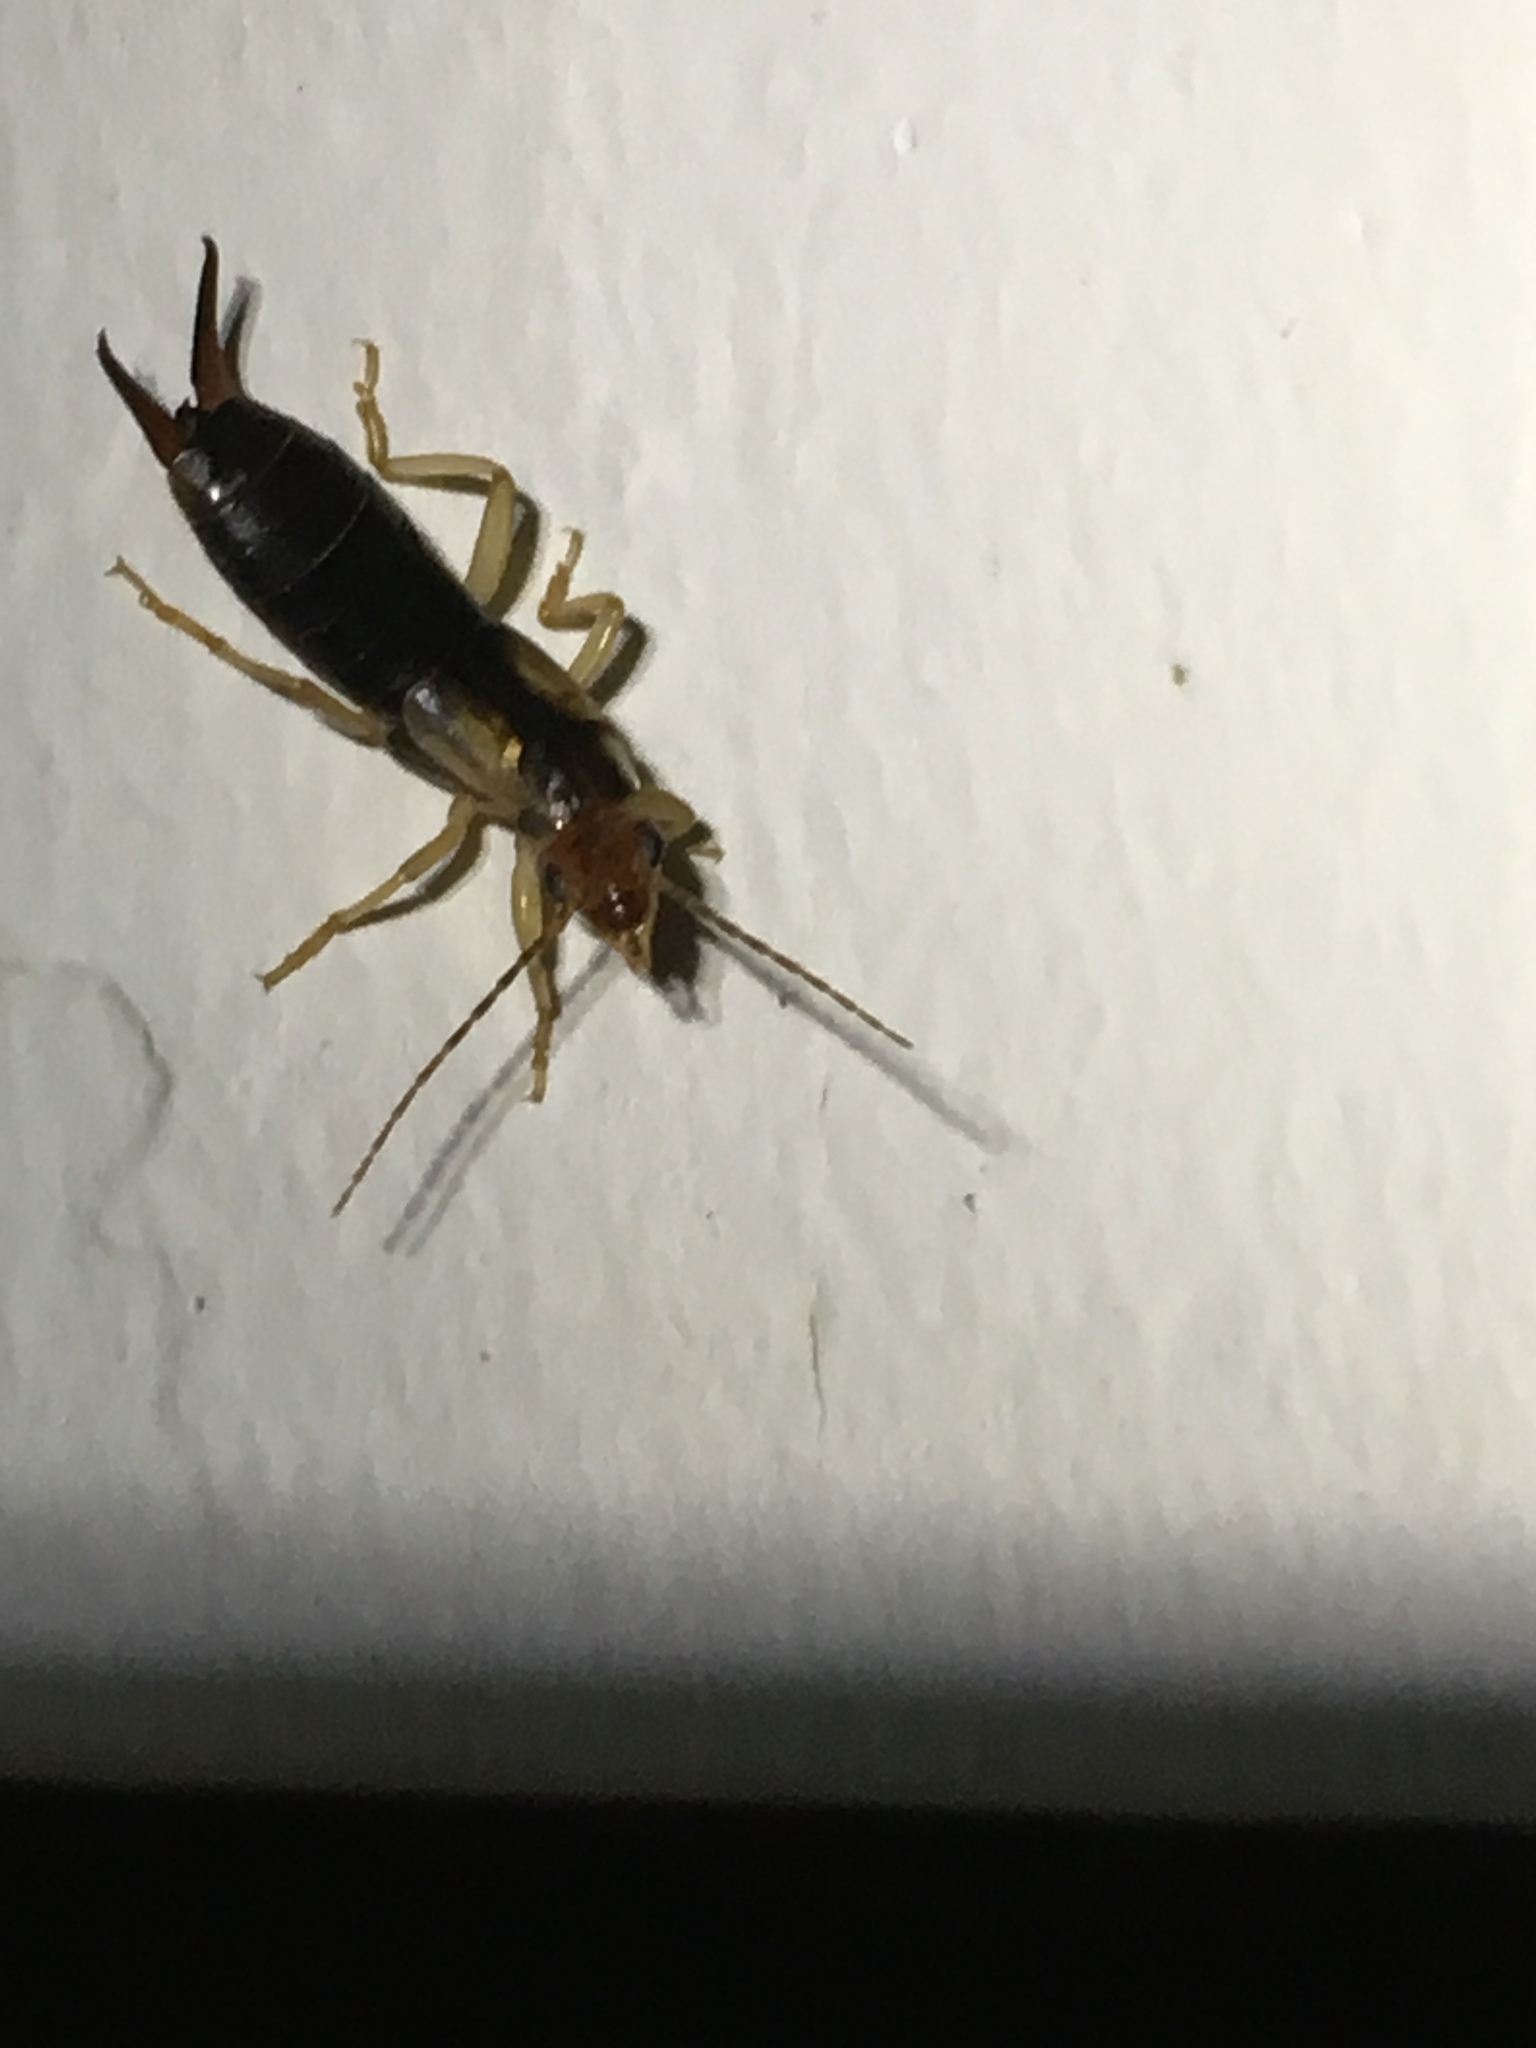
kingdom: Animalia
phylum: Arthropoda
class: Insecta
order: Dermaptera
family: Forficulidae
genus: Forficula
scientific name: Forficula tomis
